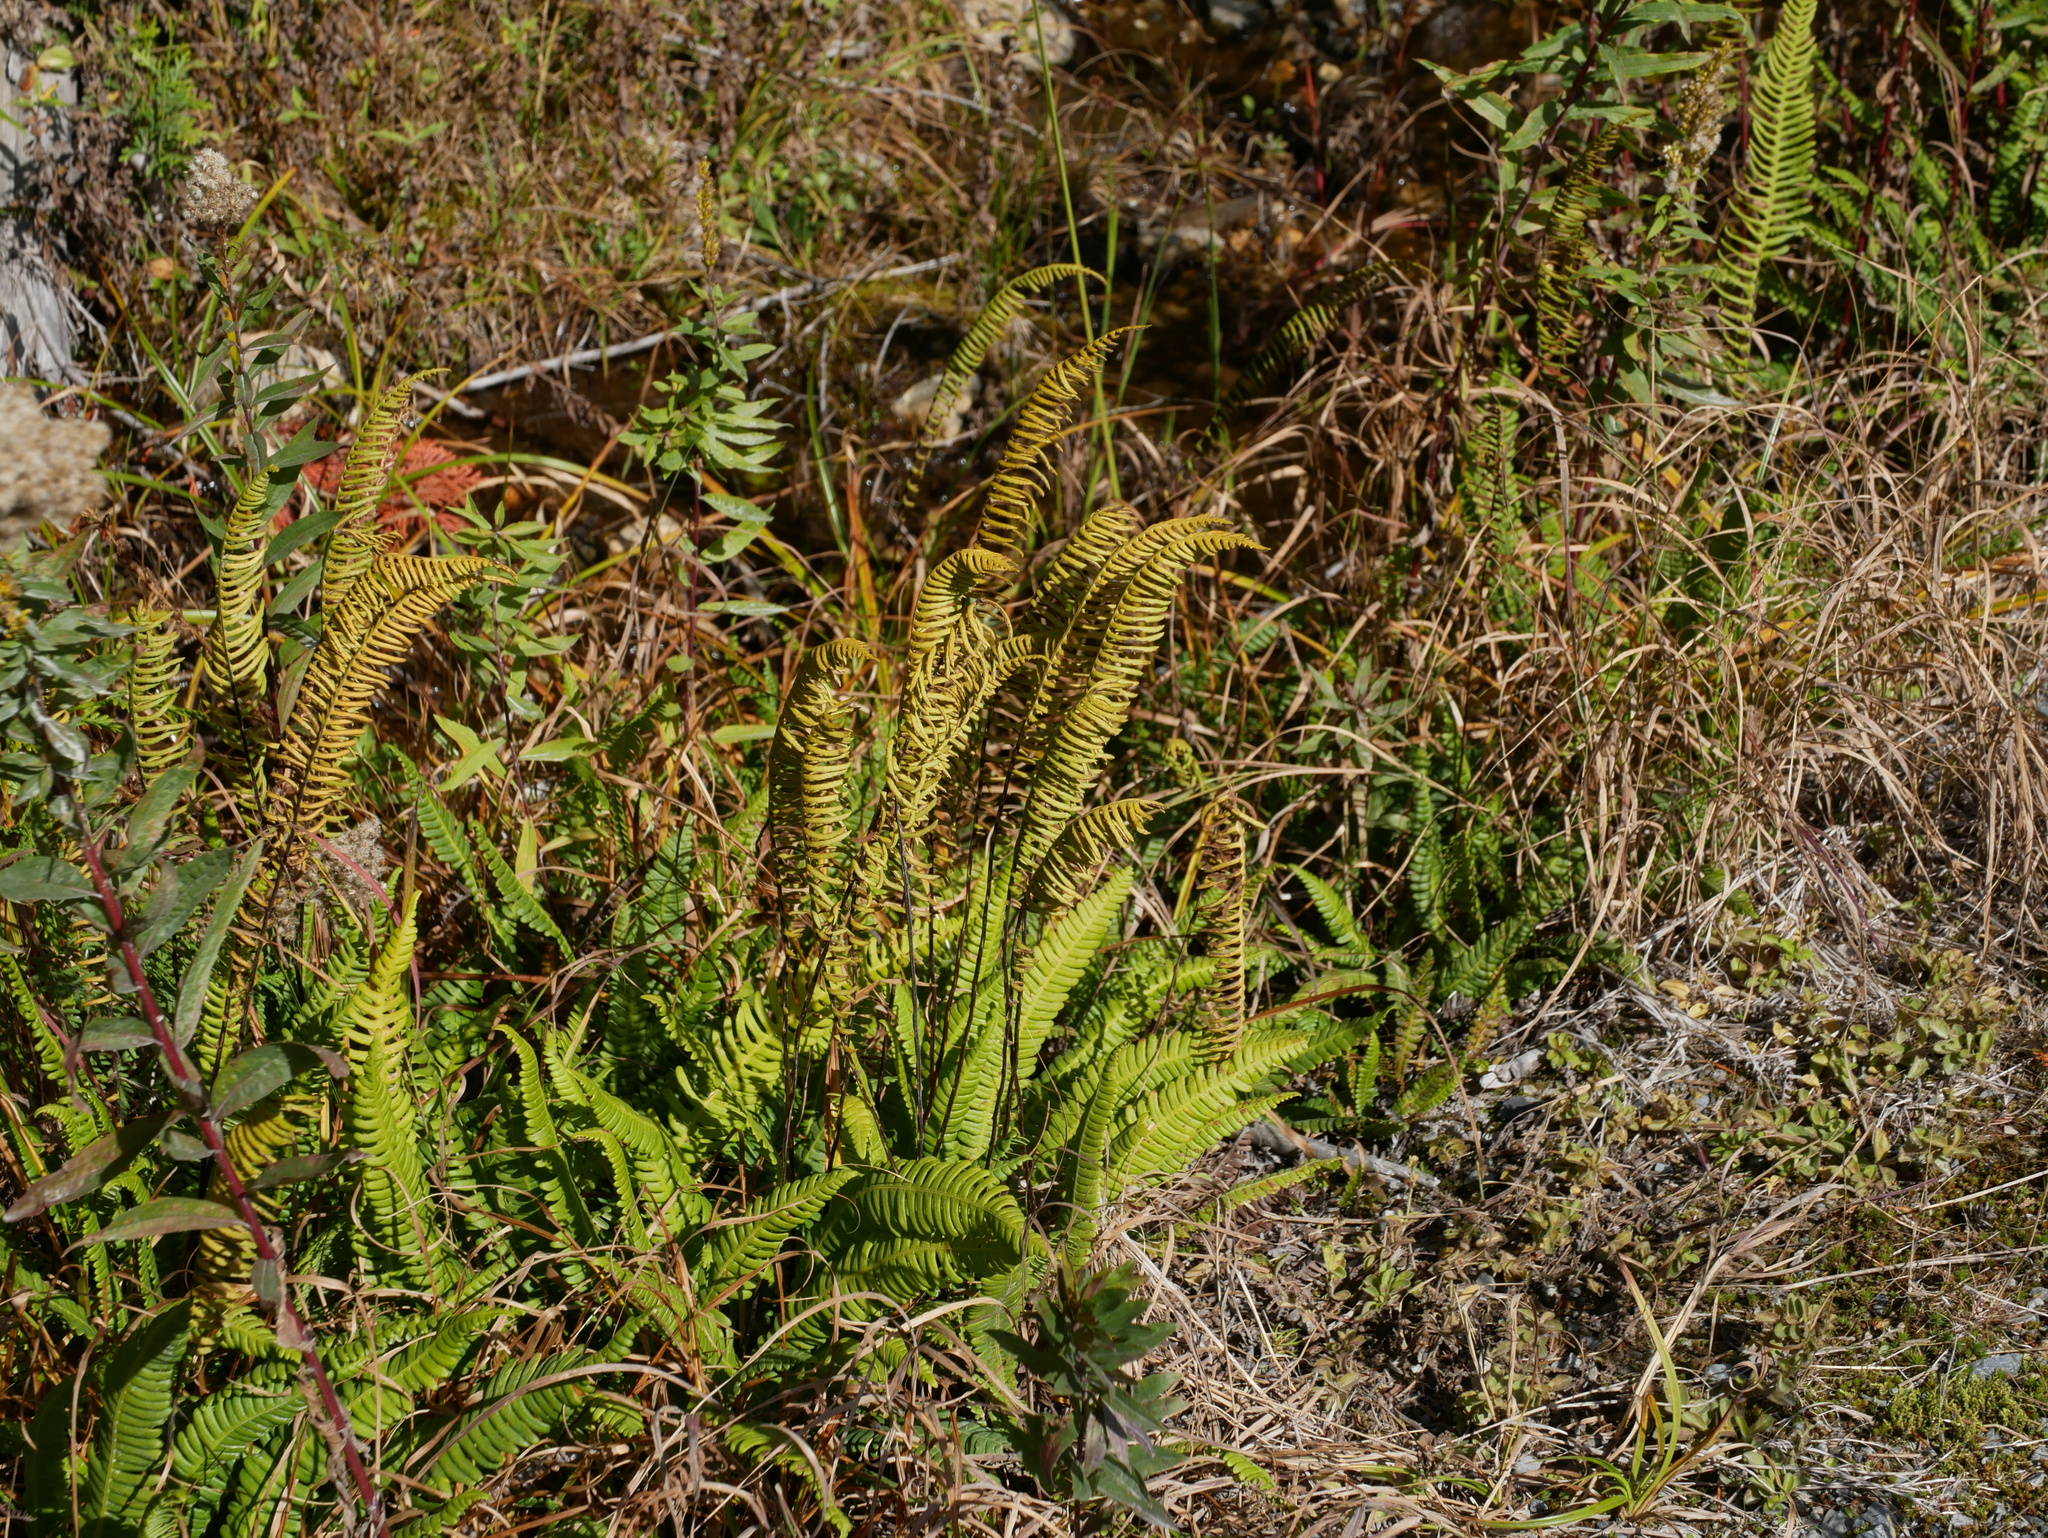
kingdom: Plantae
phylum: Tracheophyta
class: Polypodiopsida
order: Polypodiales
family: Blechnaceae
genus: Struthiopteris
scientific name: Struthiopteris spicant
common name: Deer fern
